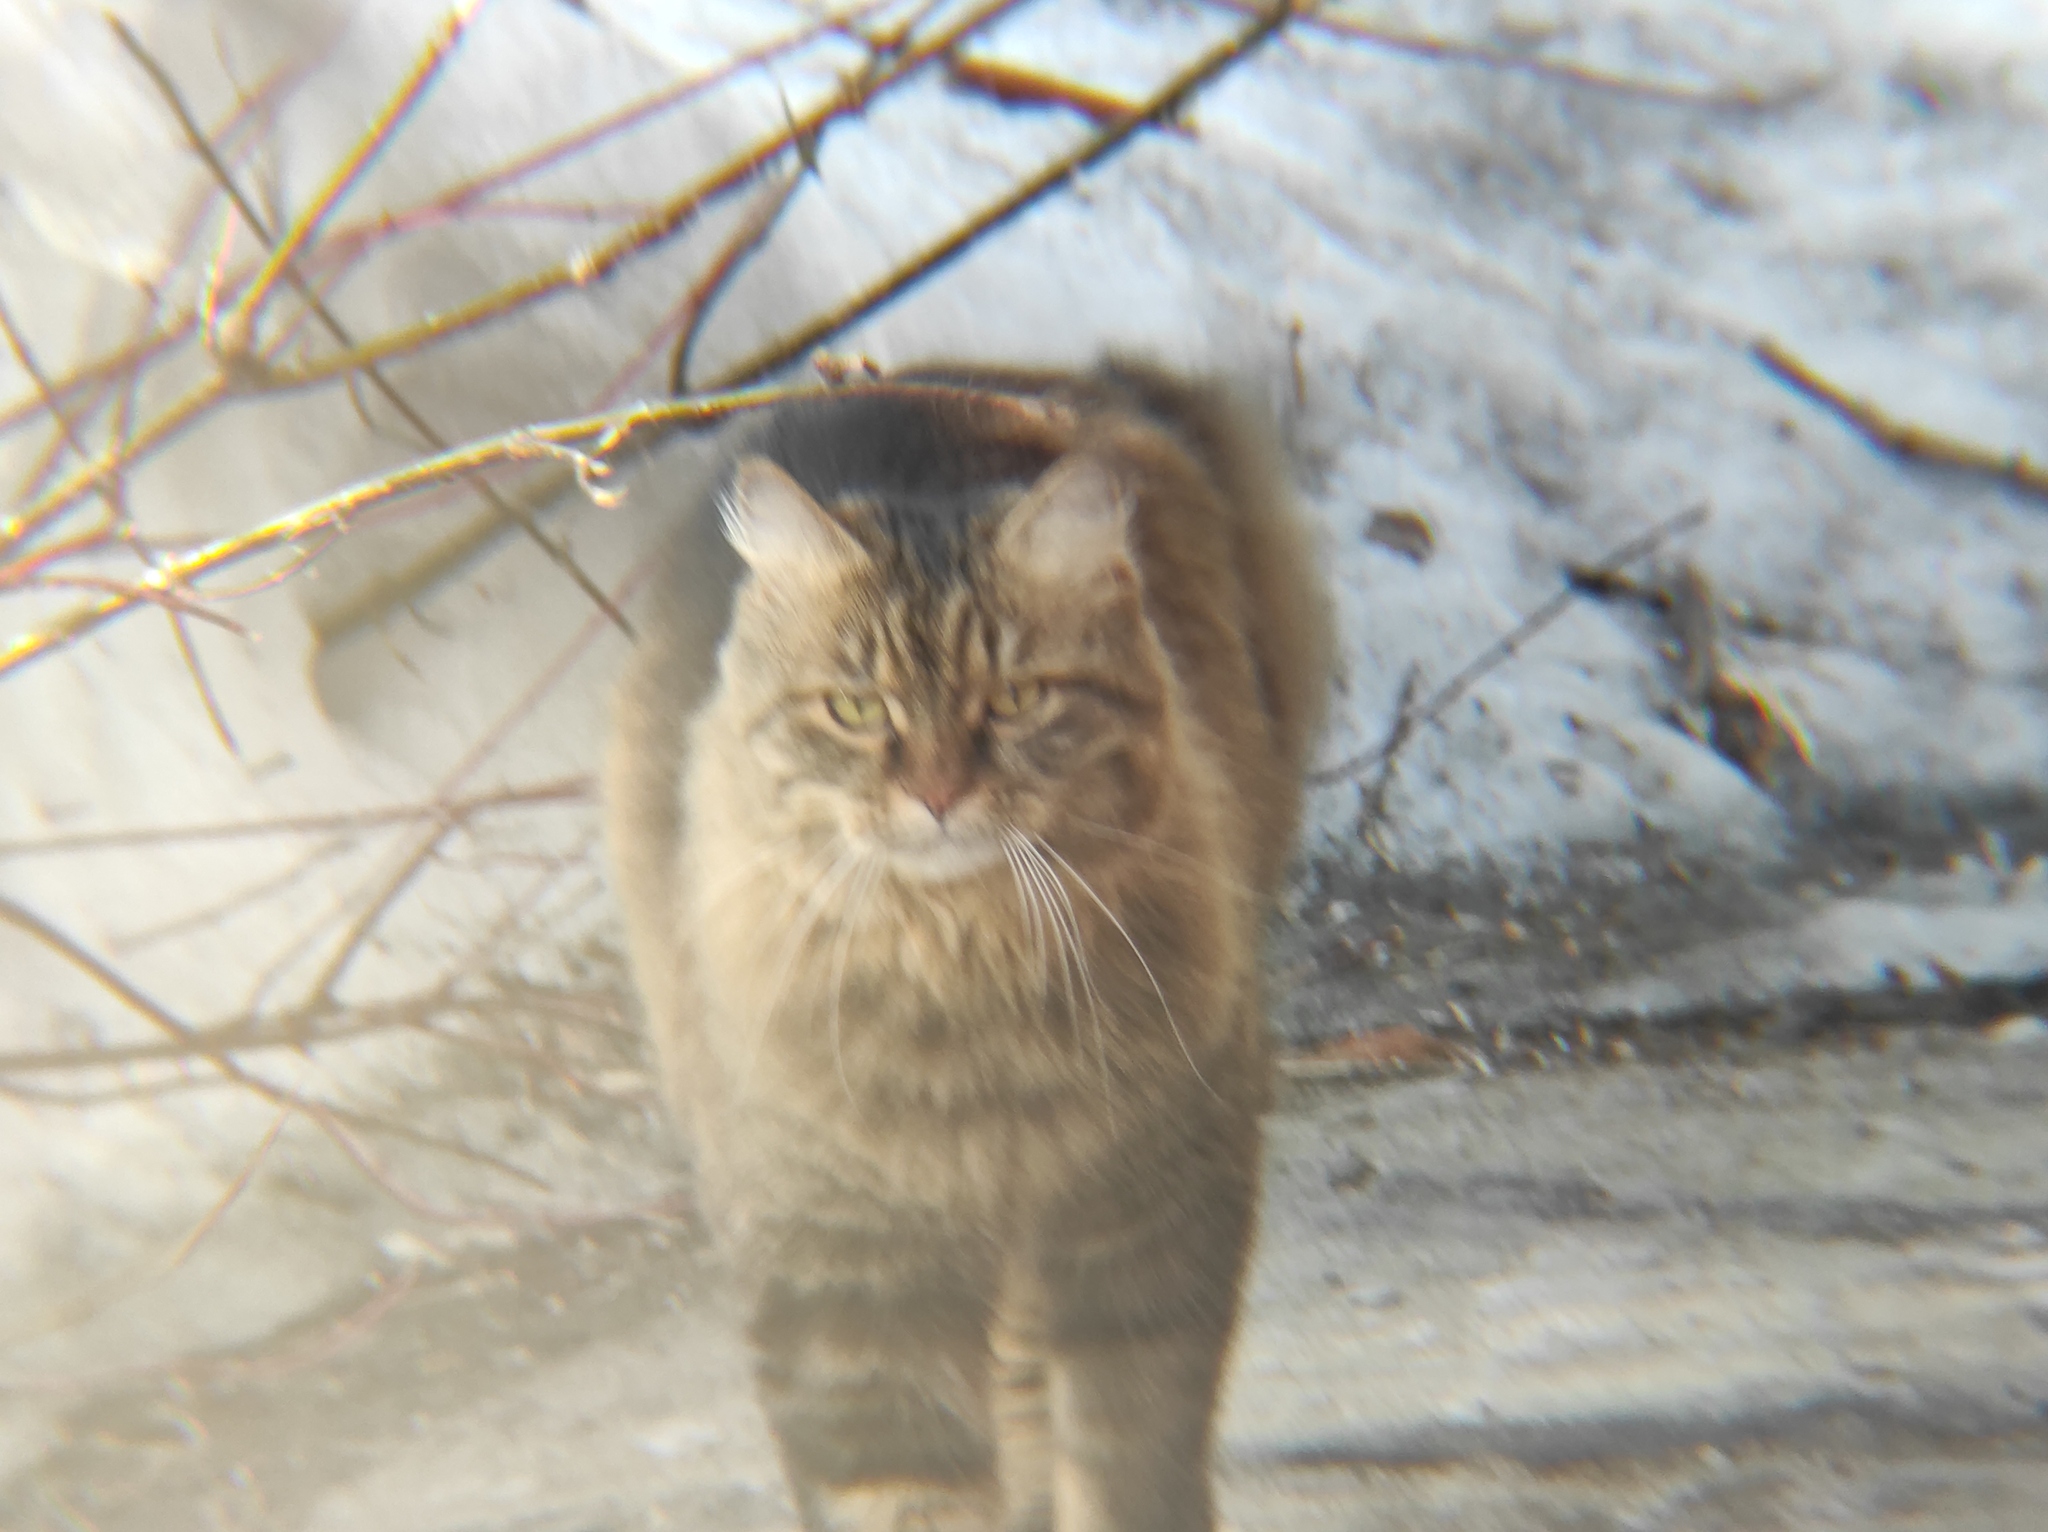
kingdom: Animalia
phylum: Chordata
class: Mammalia
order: Carnivora
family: Felidae
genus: Felis
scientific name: Felis catus
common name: Domestic cat
